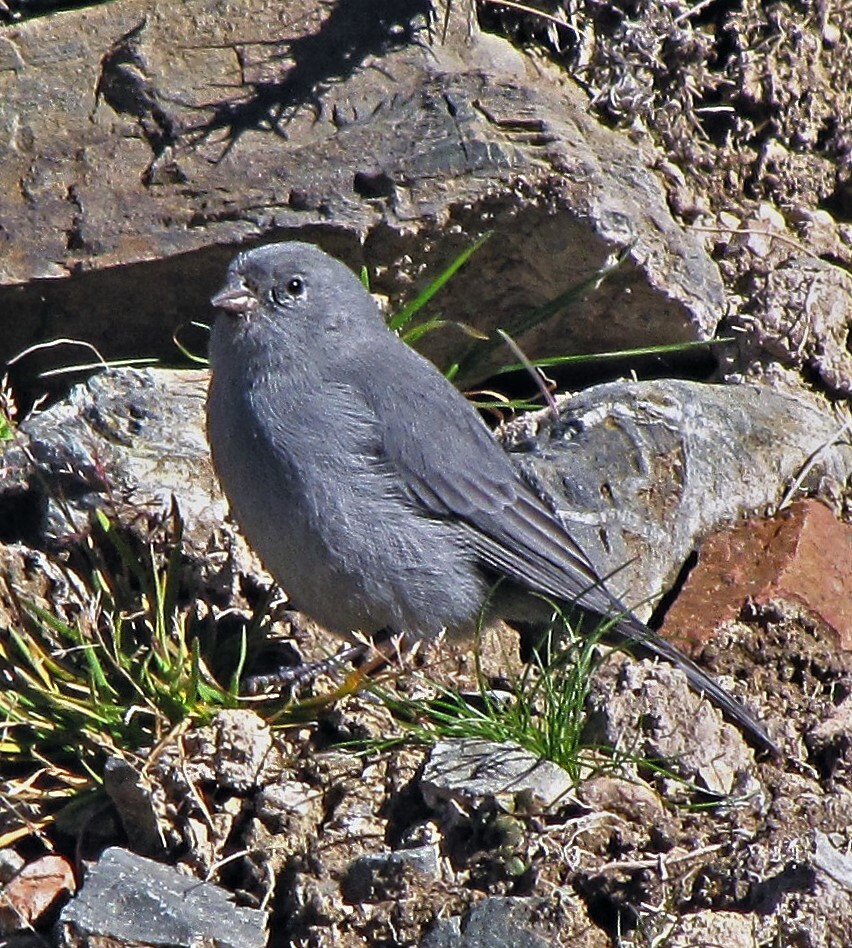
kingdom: Animalia
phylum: Chordata
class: Aves
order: Passeriformes
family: Thraupidae
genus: Geospizopsis
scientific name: Geospizopsis unicolor
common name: Plumbeous sierra-finch
